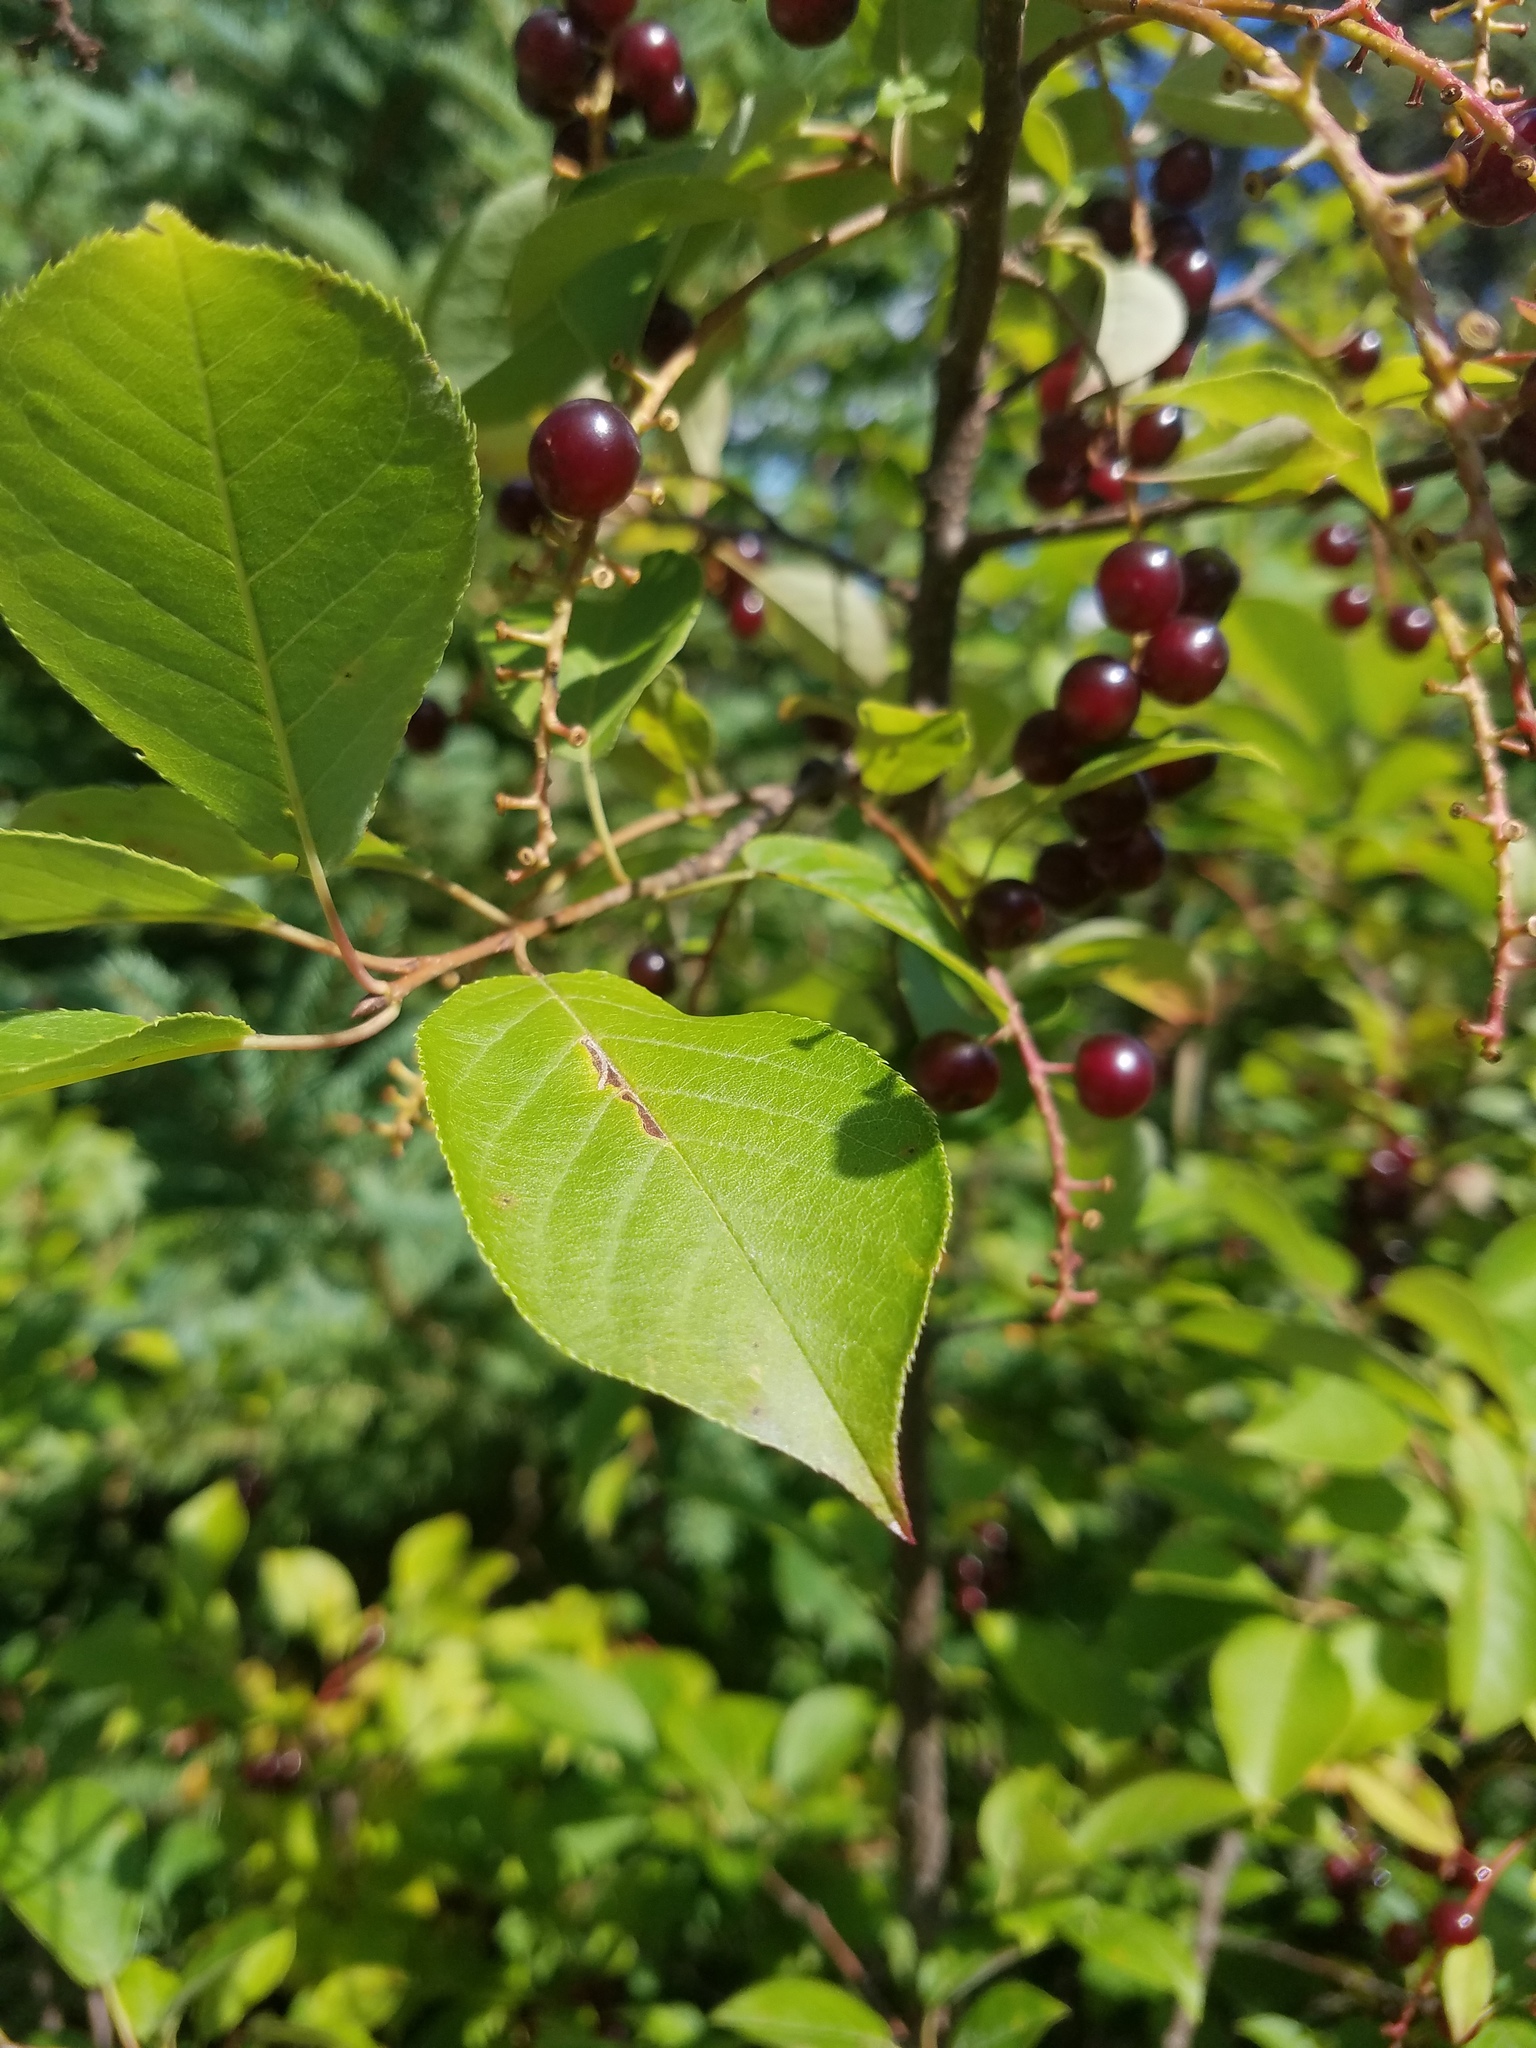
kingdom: Plantae
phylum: Tracheophyta
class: Magnoliopsida
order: Rosales
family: Rosaceae
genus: Prunus
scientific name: Prunus virginiana
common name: Chokecherry
